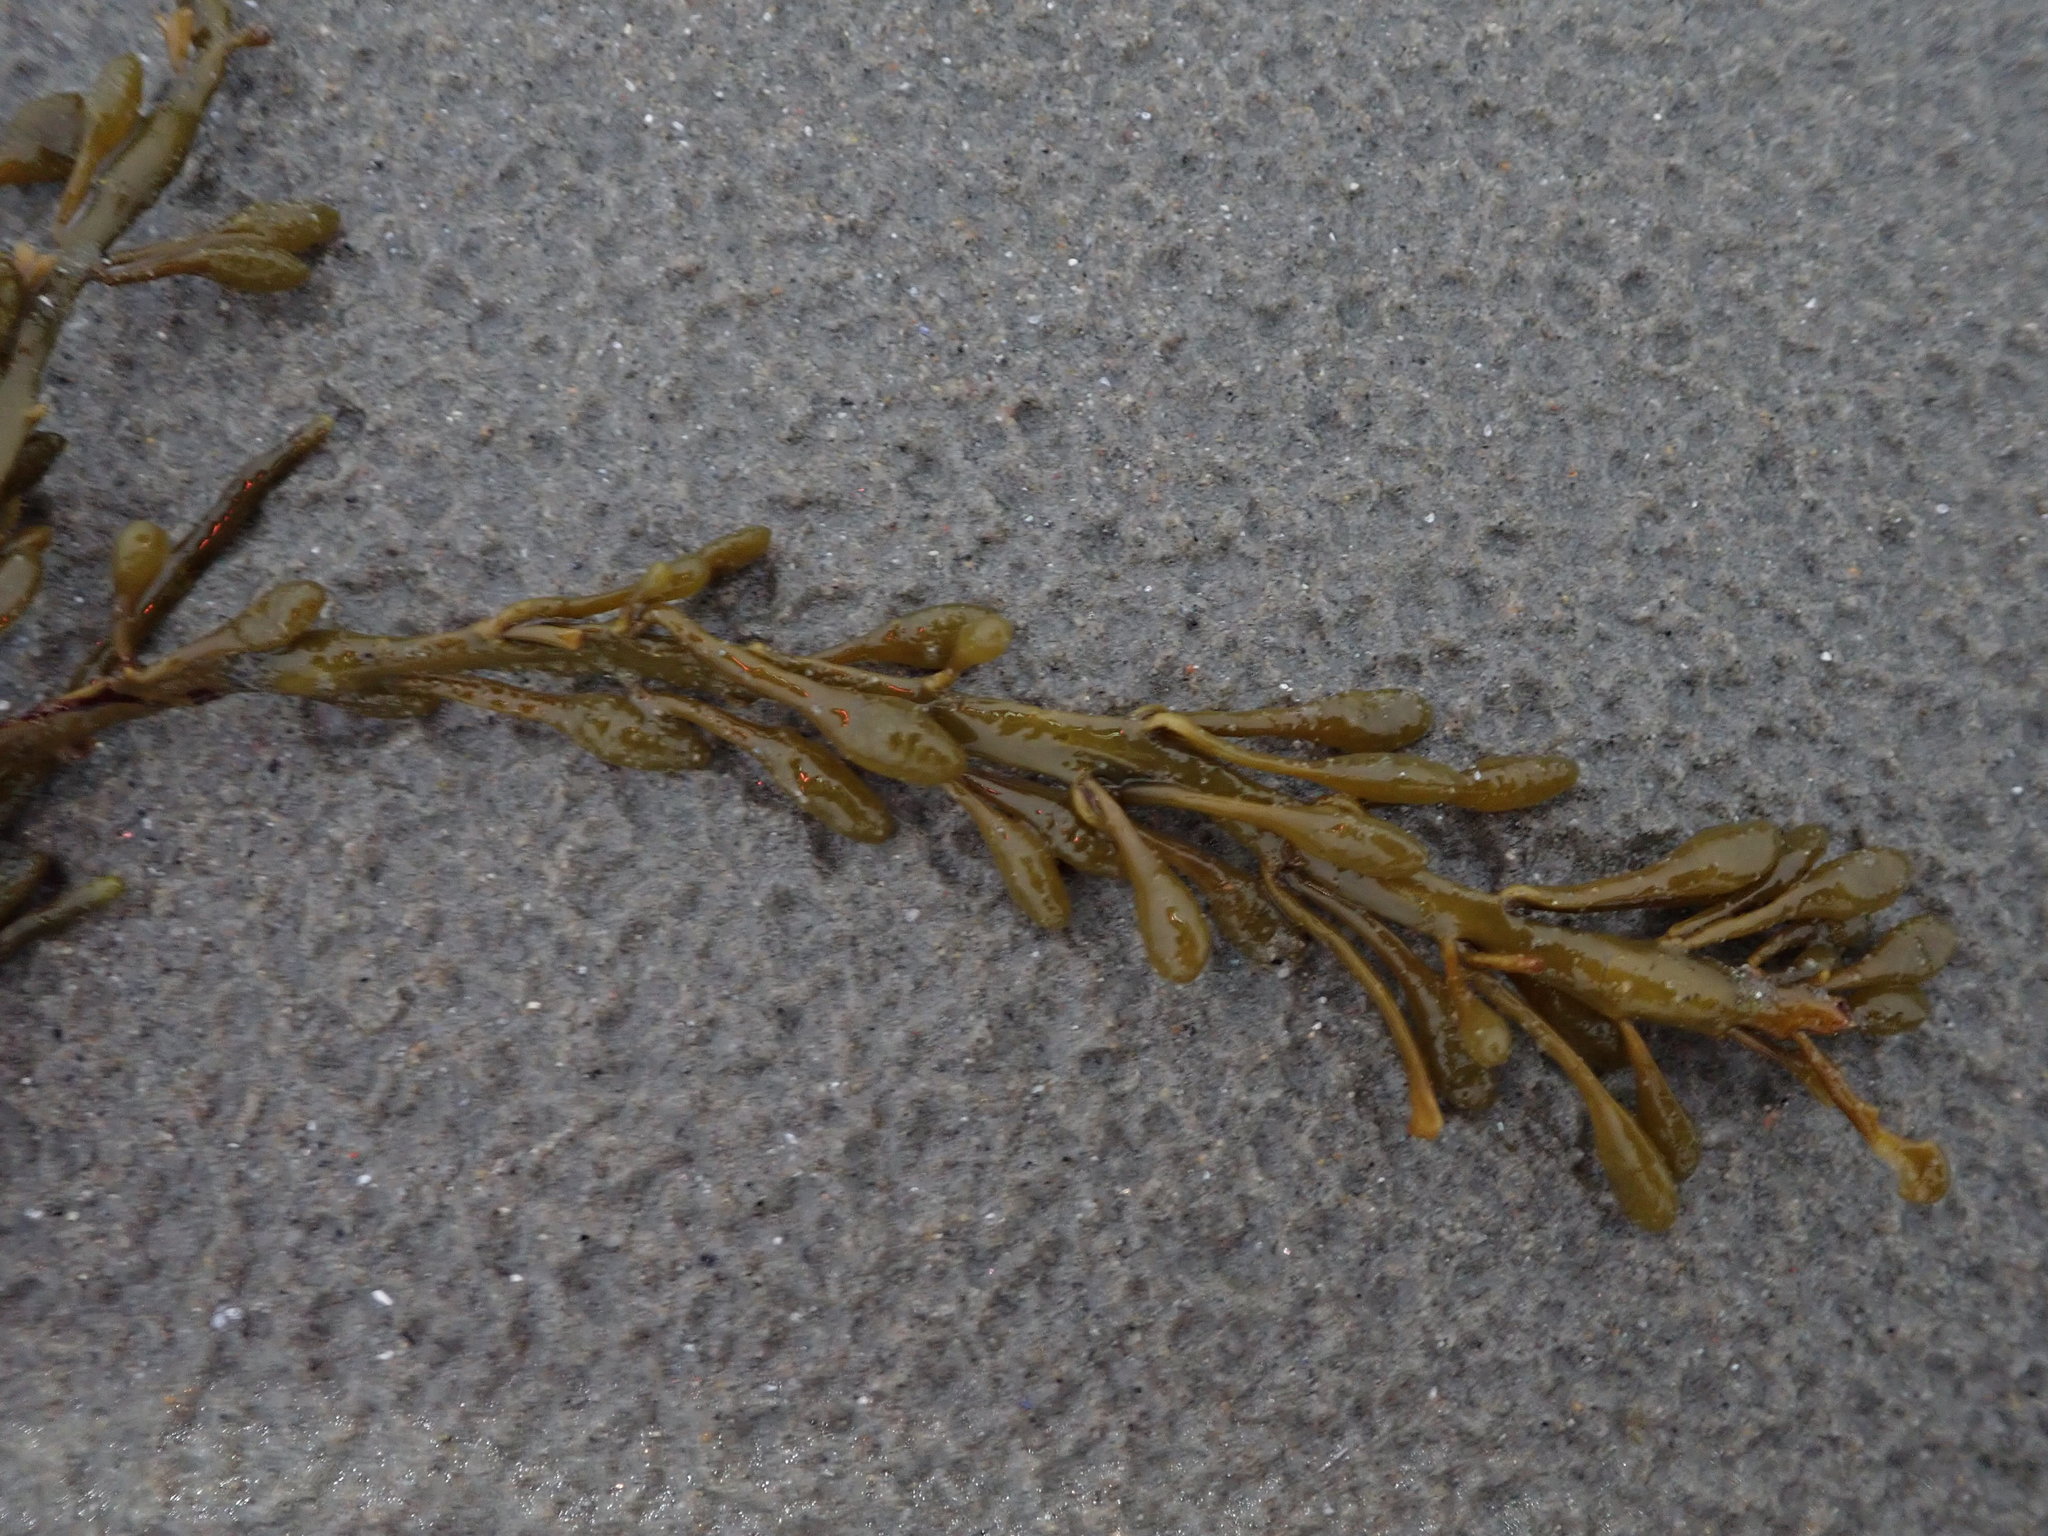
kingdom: Chromista
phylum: Ochrophyta
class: Phaeophyceae
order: Fucales
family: Fucaceae
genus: Ascophyllum
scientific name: Ascophyllum nodosum
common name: Knotted wrack
